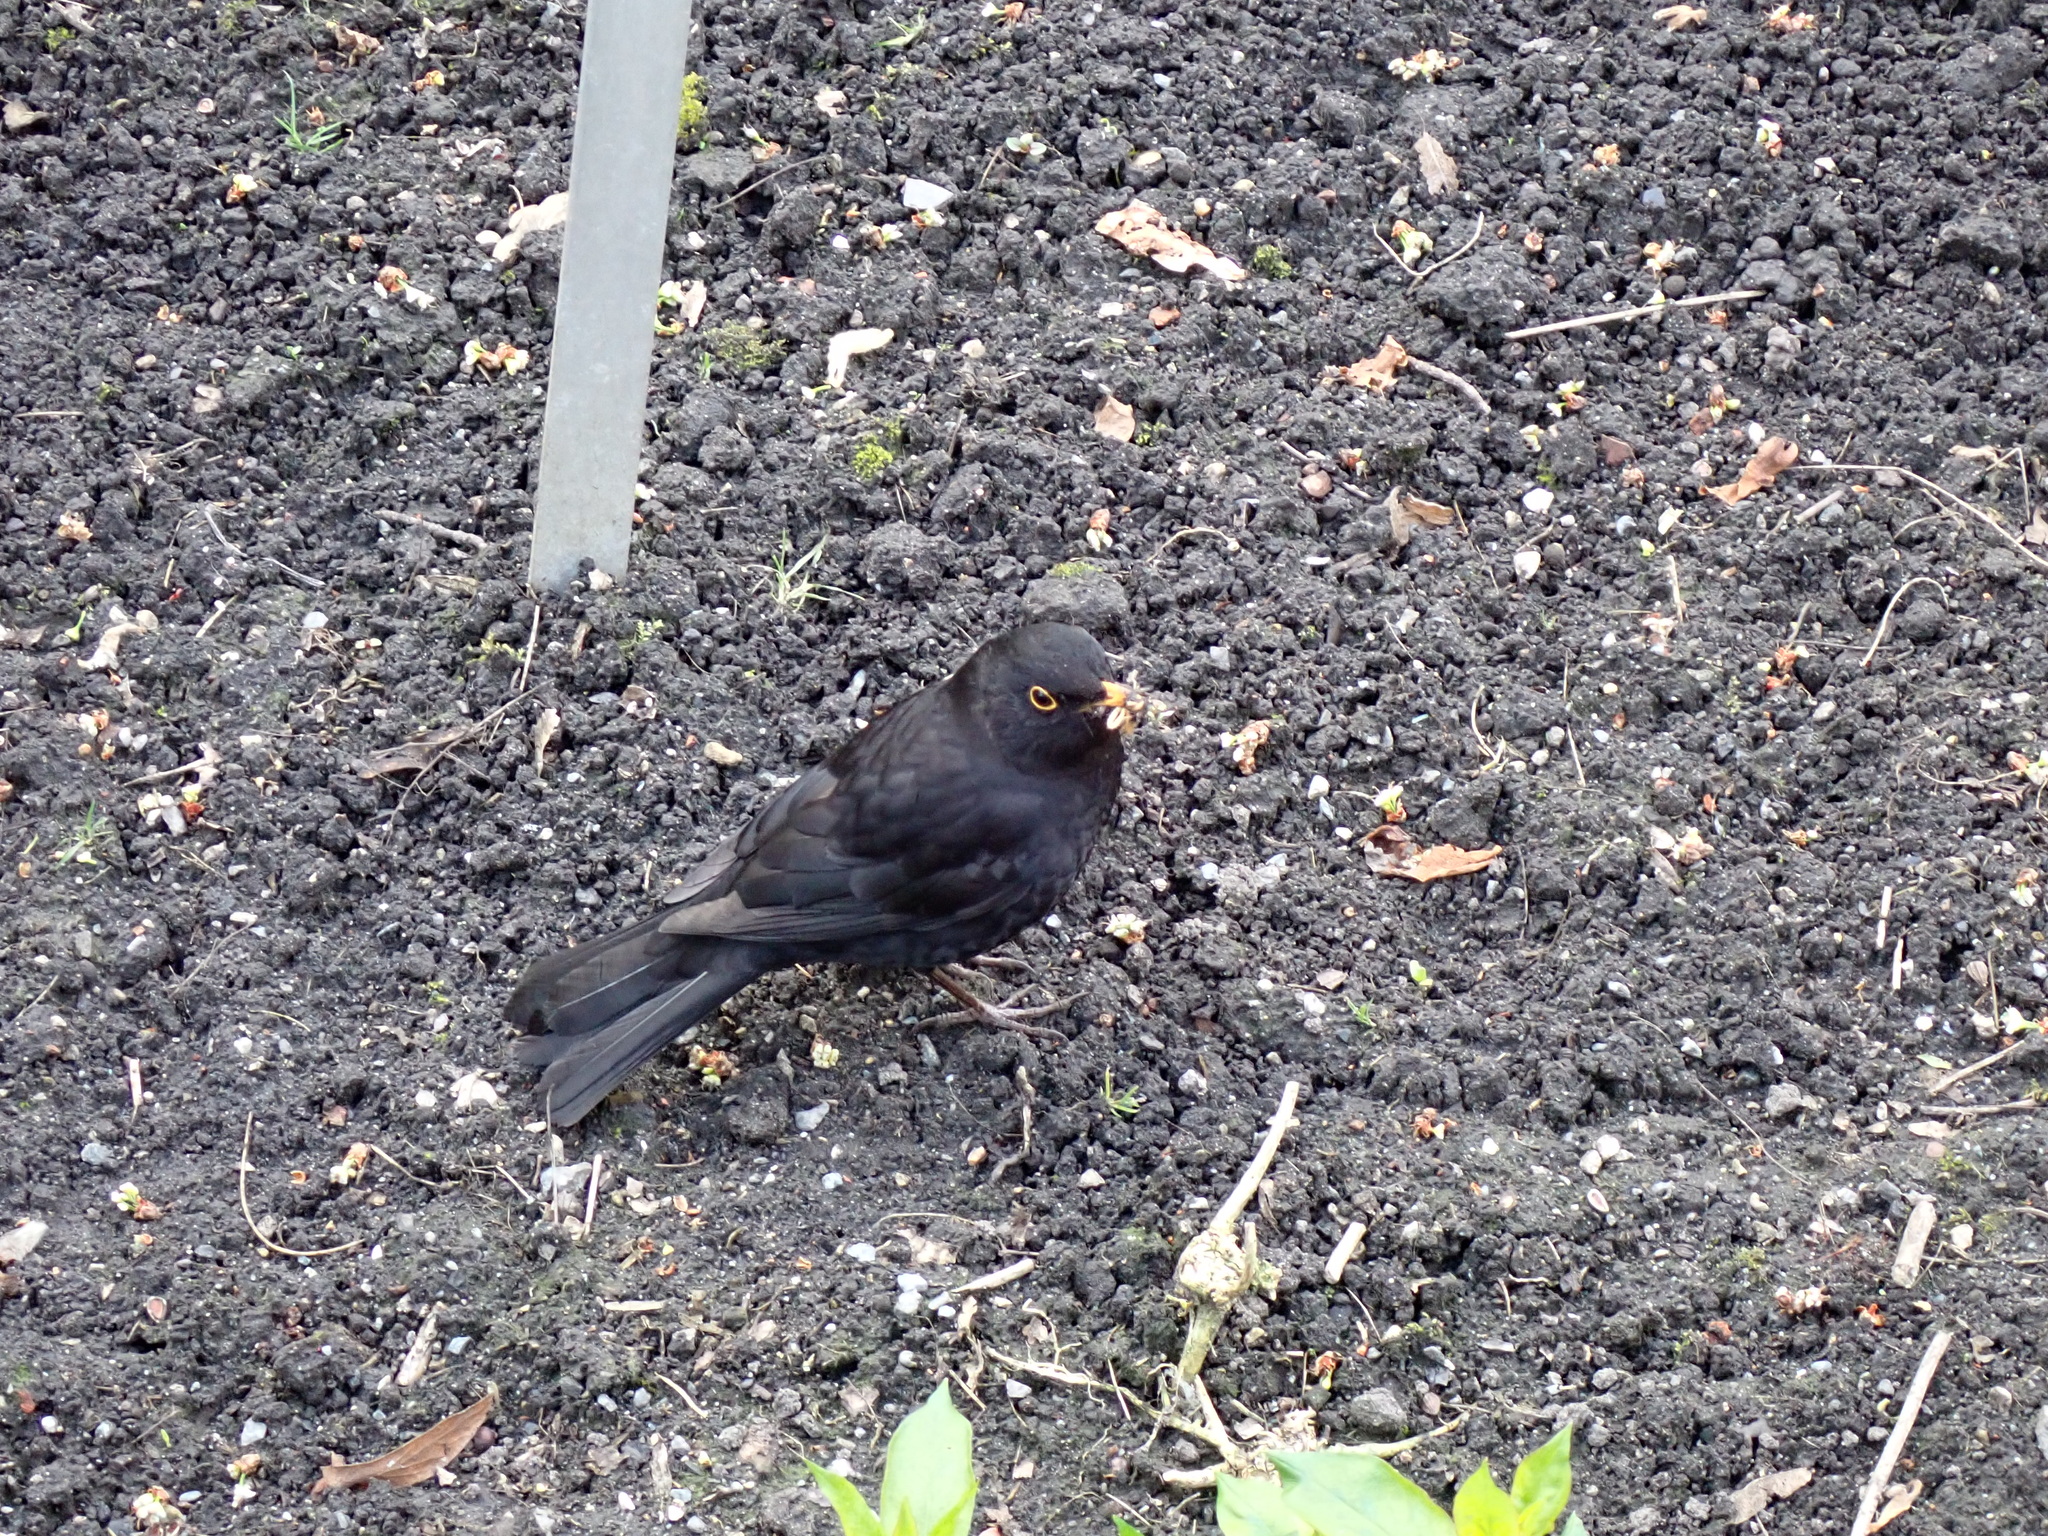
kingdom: Animalia
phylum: Chordata
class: Aves
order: Passeriformes
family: Turdidae
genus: Turdus
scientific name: Turdus merula
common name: Common blackbird
